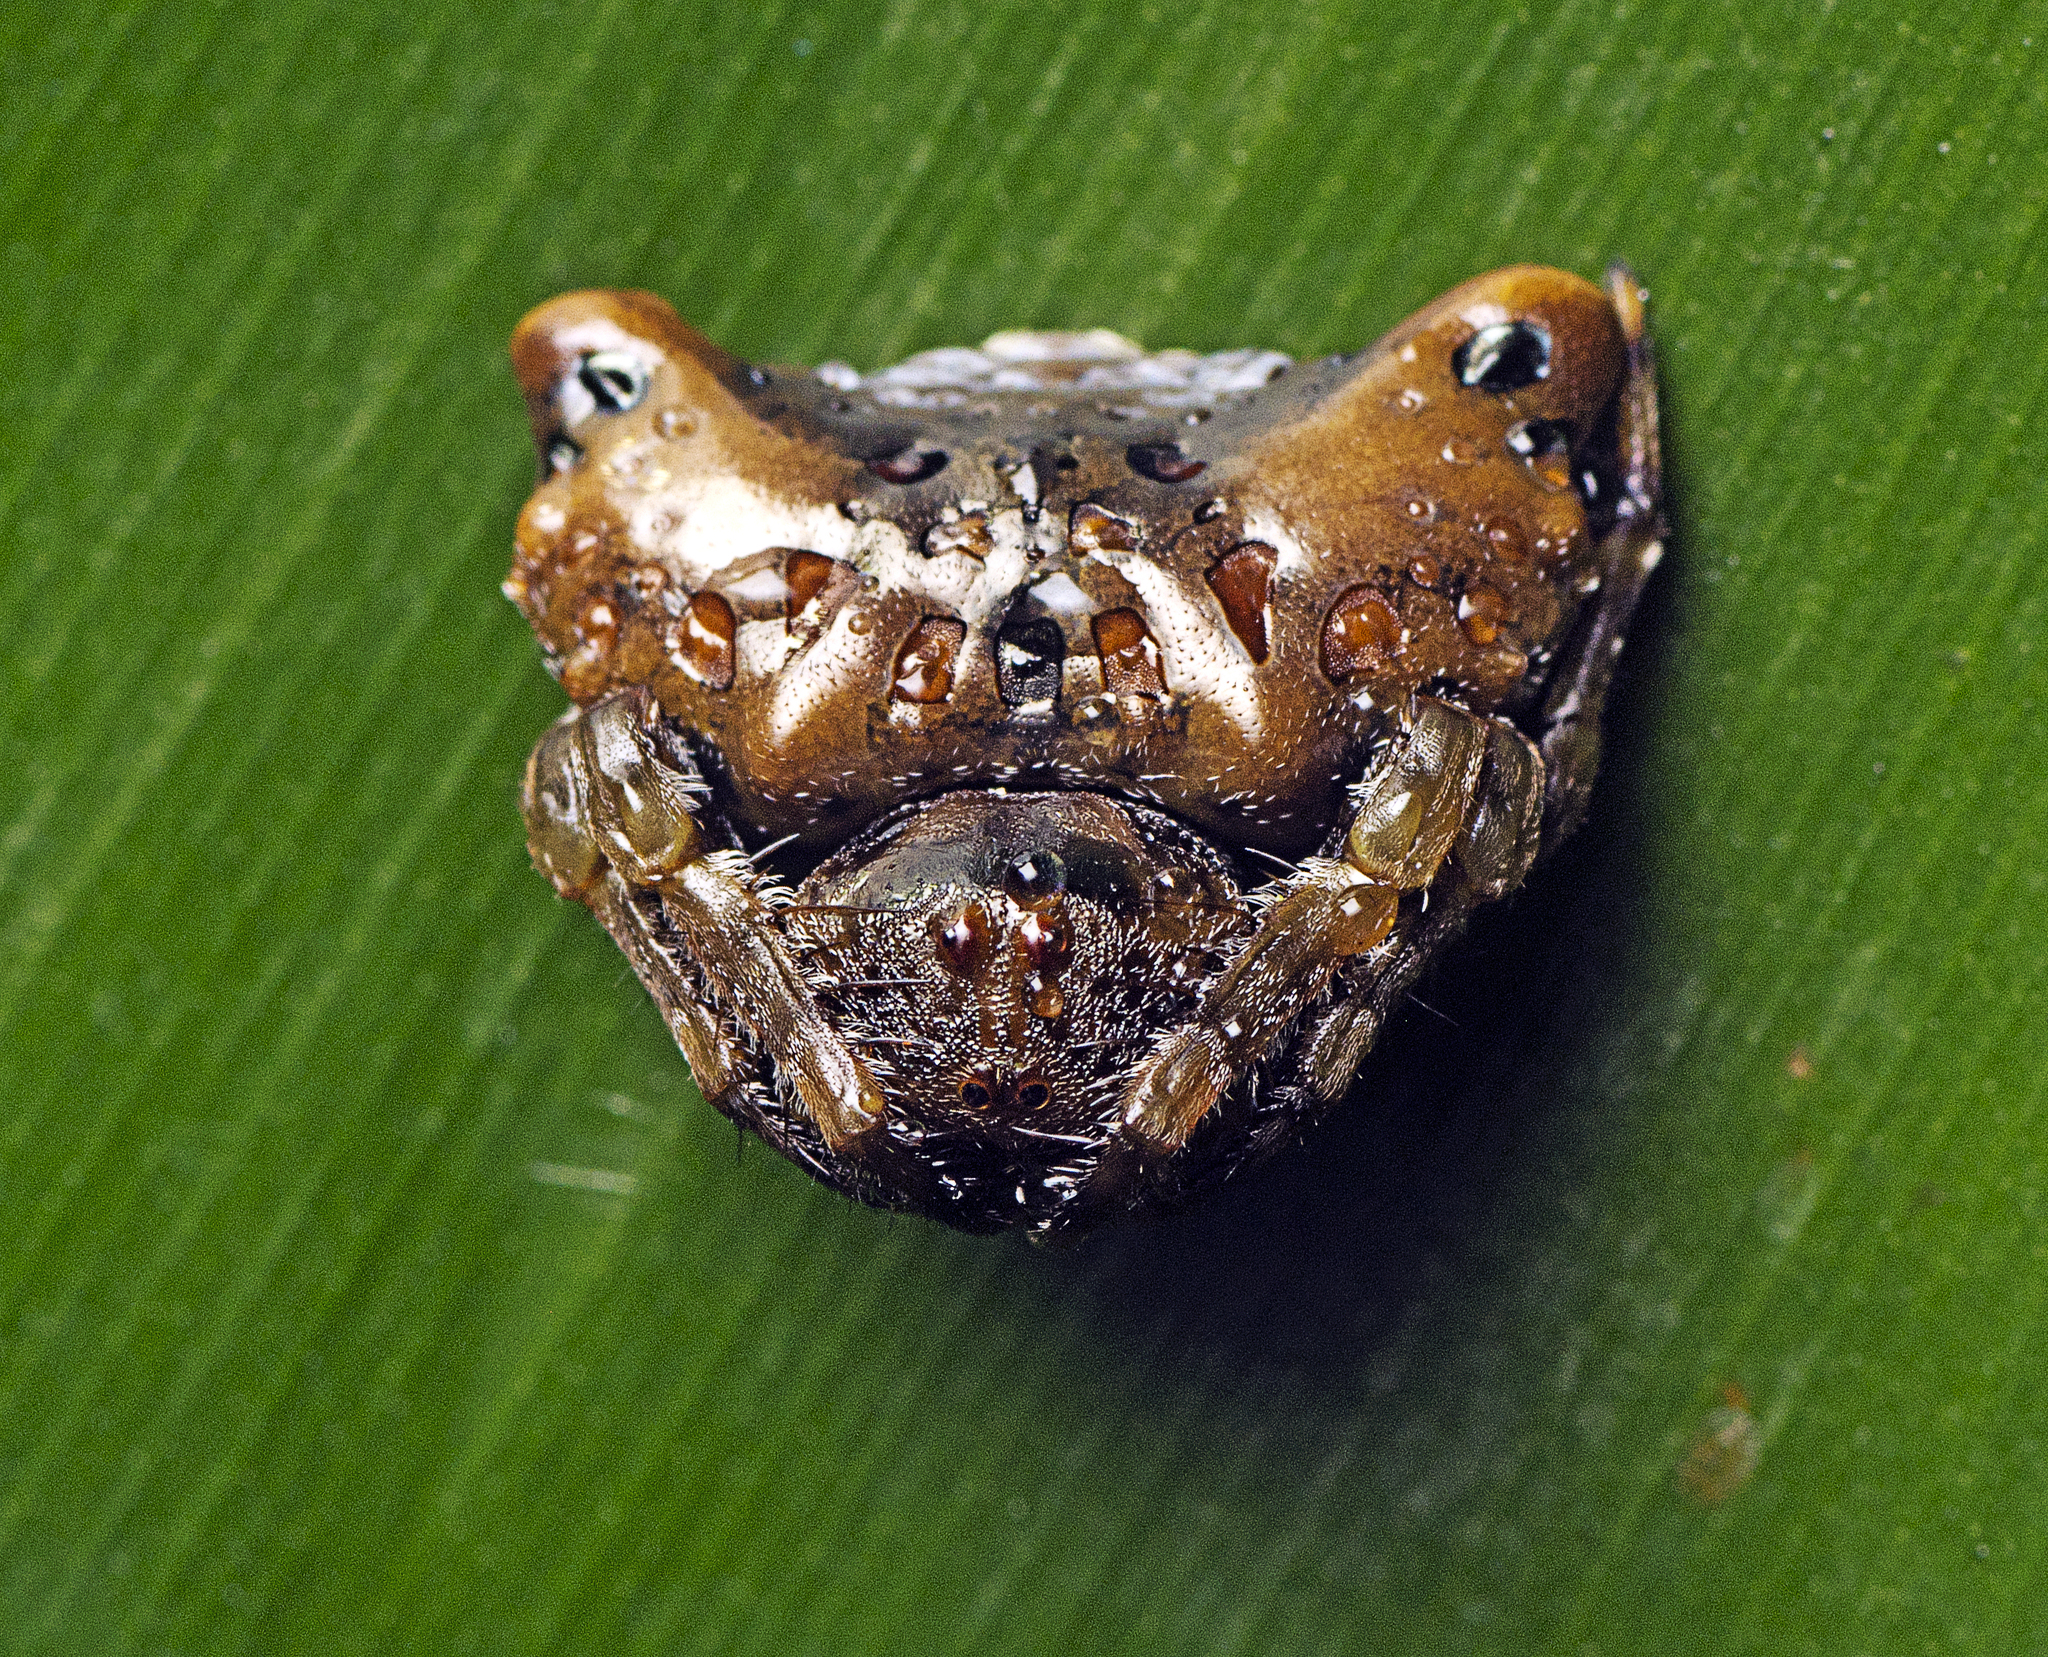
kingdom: Animalia
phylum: Arthropoda
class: Arachnida
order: Araneae
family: Arkyidae
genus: Arkys
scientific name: Arkys curtulus
